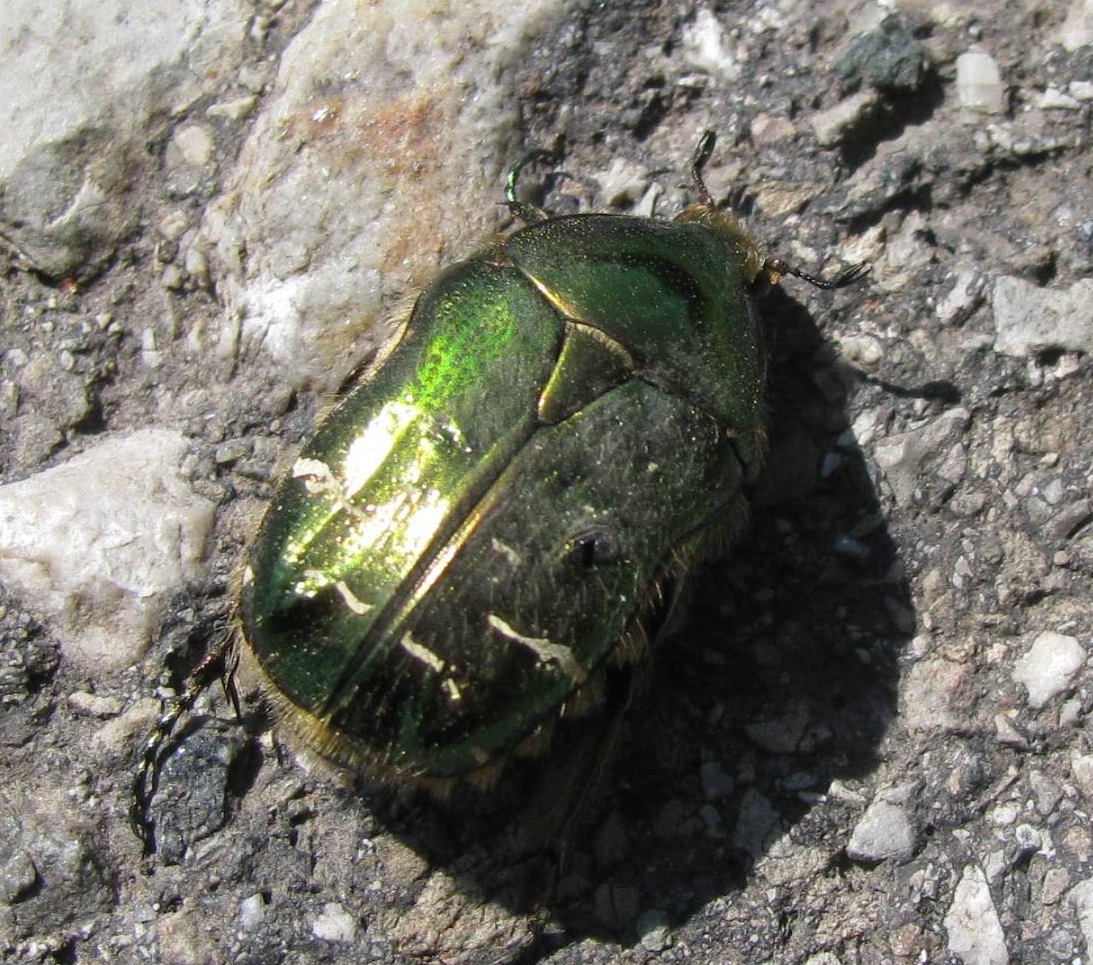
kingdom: Animalia
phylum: Arthropoda
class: Insecta
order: Coleoptera
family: Scarabaeidae
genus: Cetonia
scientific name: Cetonia aurata
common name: Rose chafer
